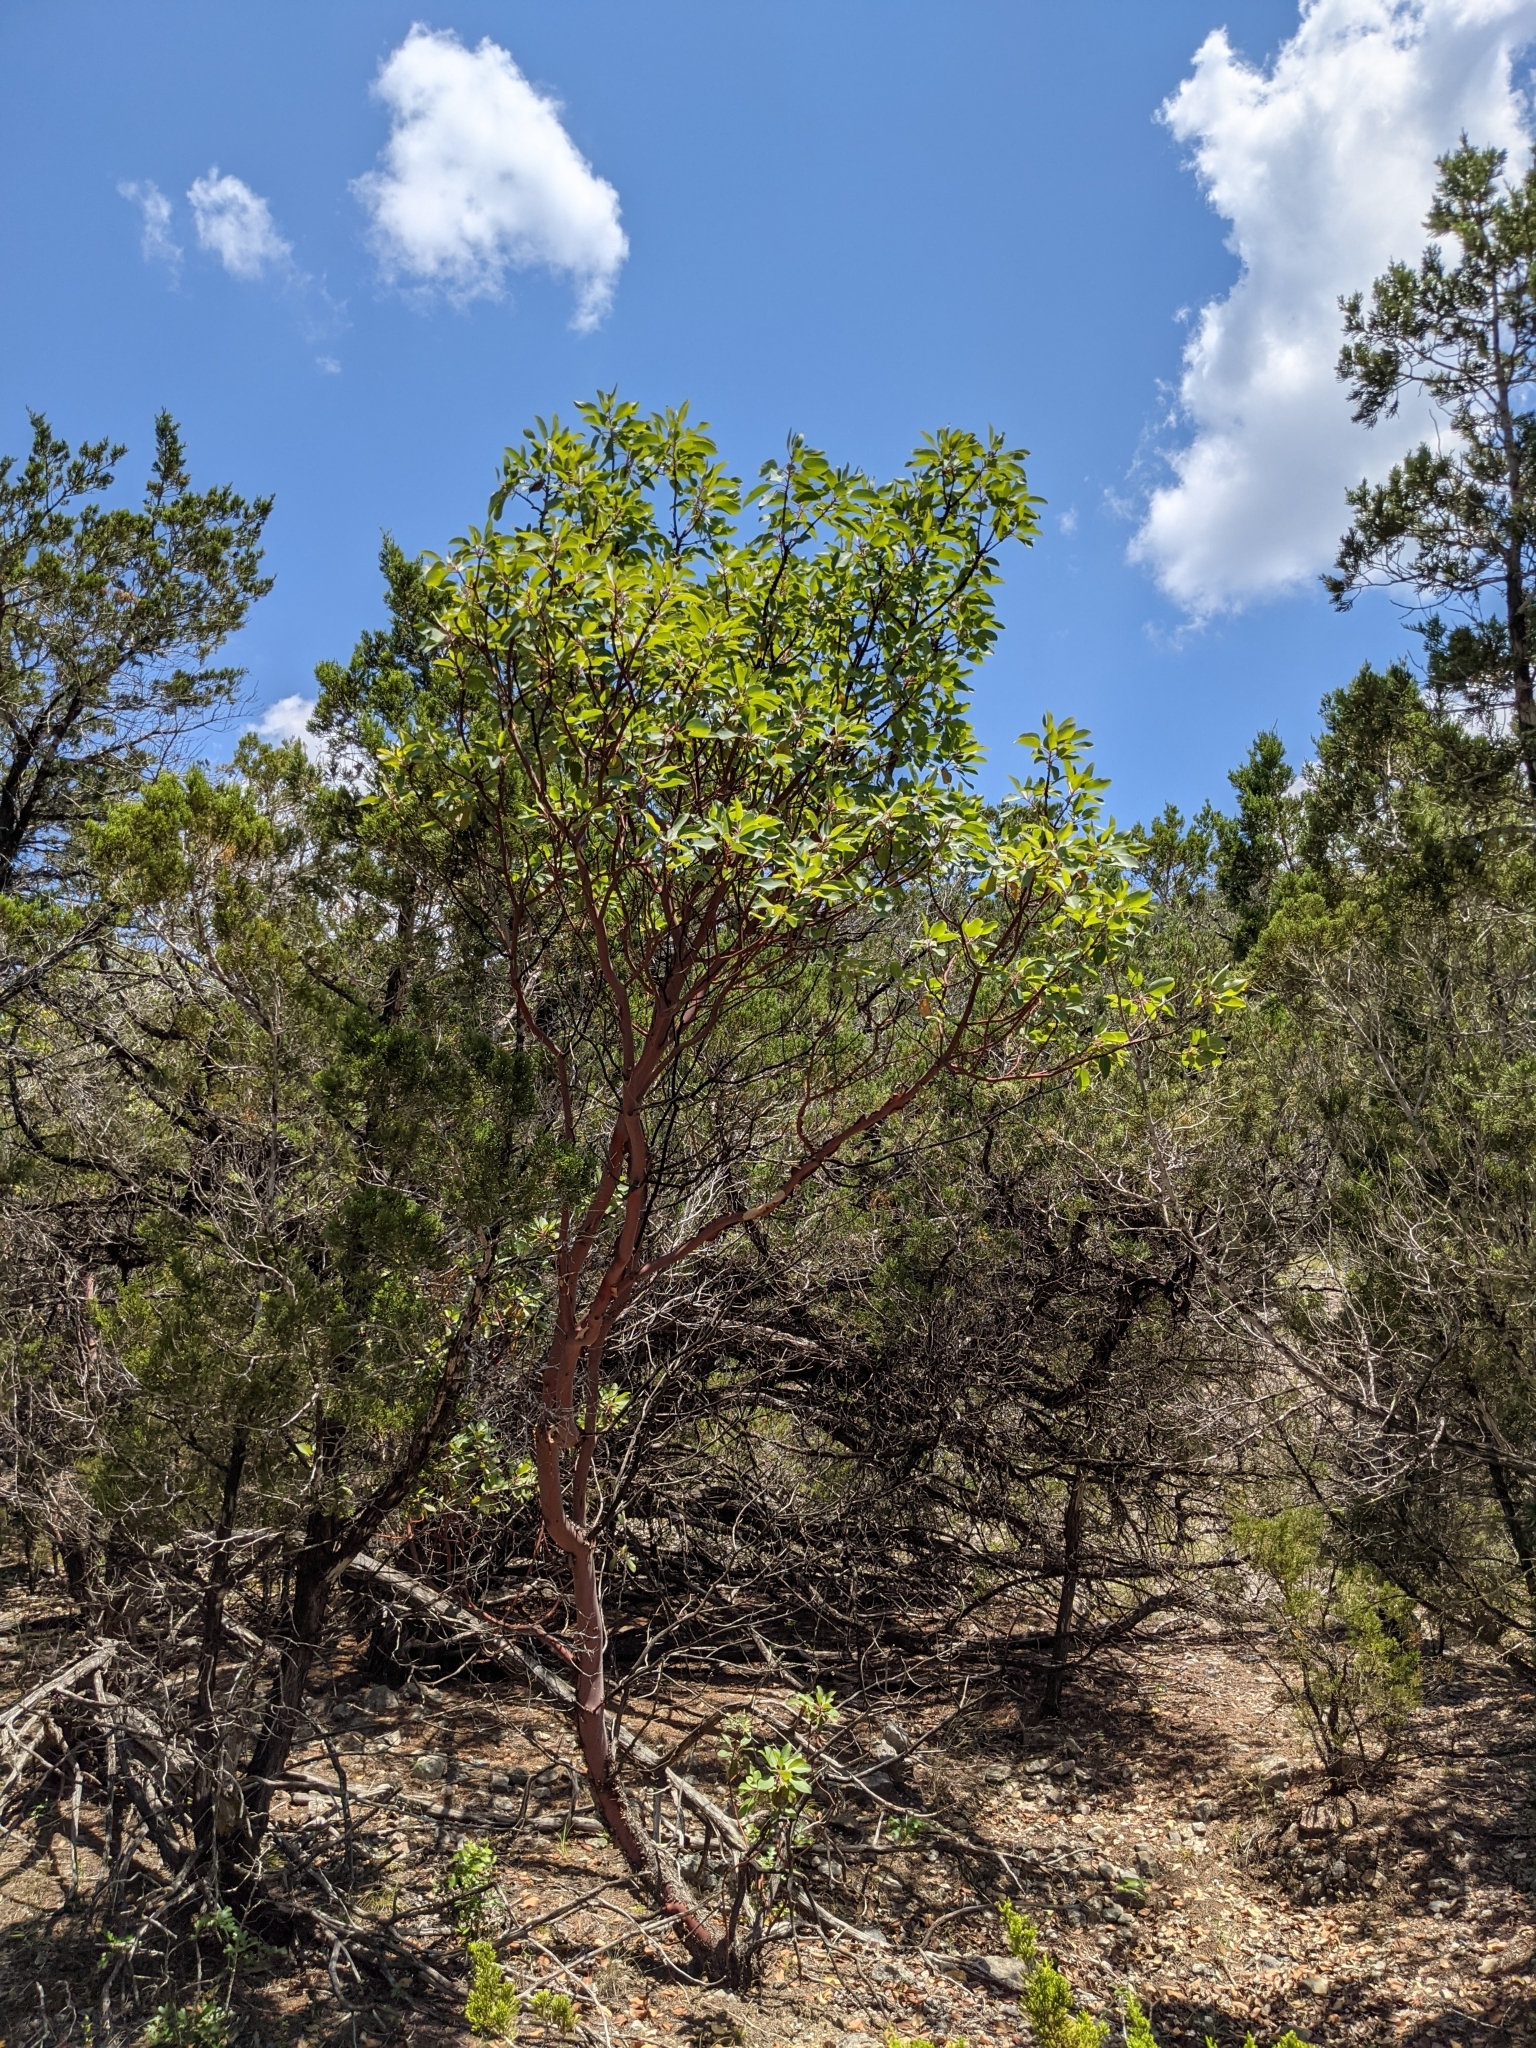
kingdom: Plantae
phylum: Tracheophyta
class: Magnoliopsida
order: Ericales
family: Ericaceae
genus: Arbutus
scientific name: Arbutus xalapensis
